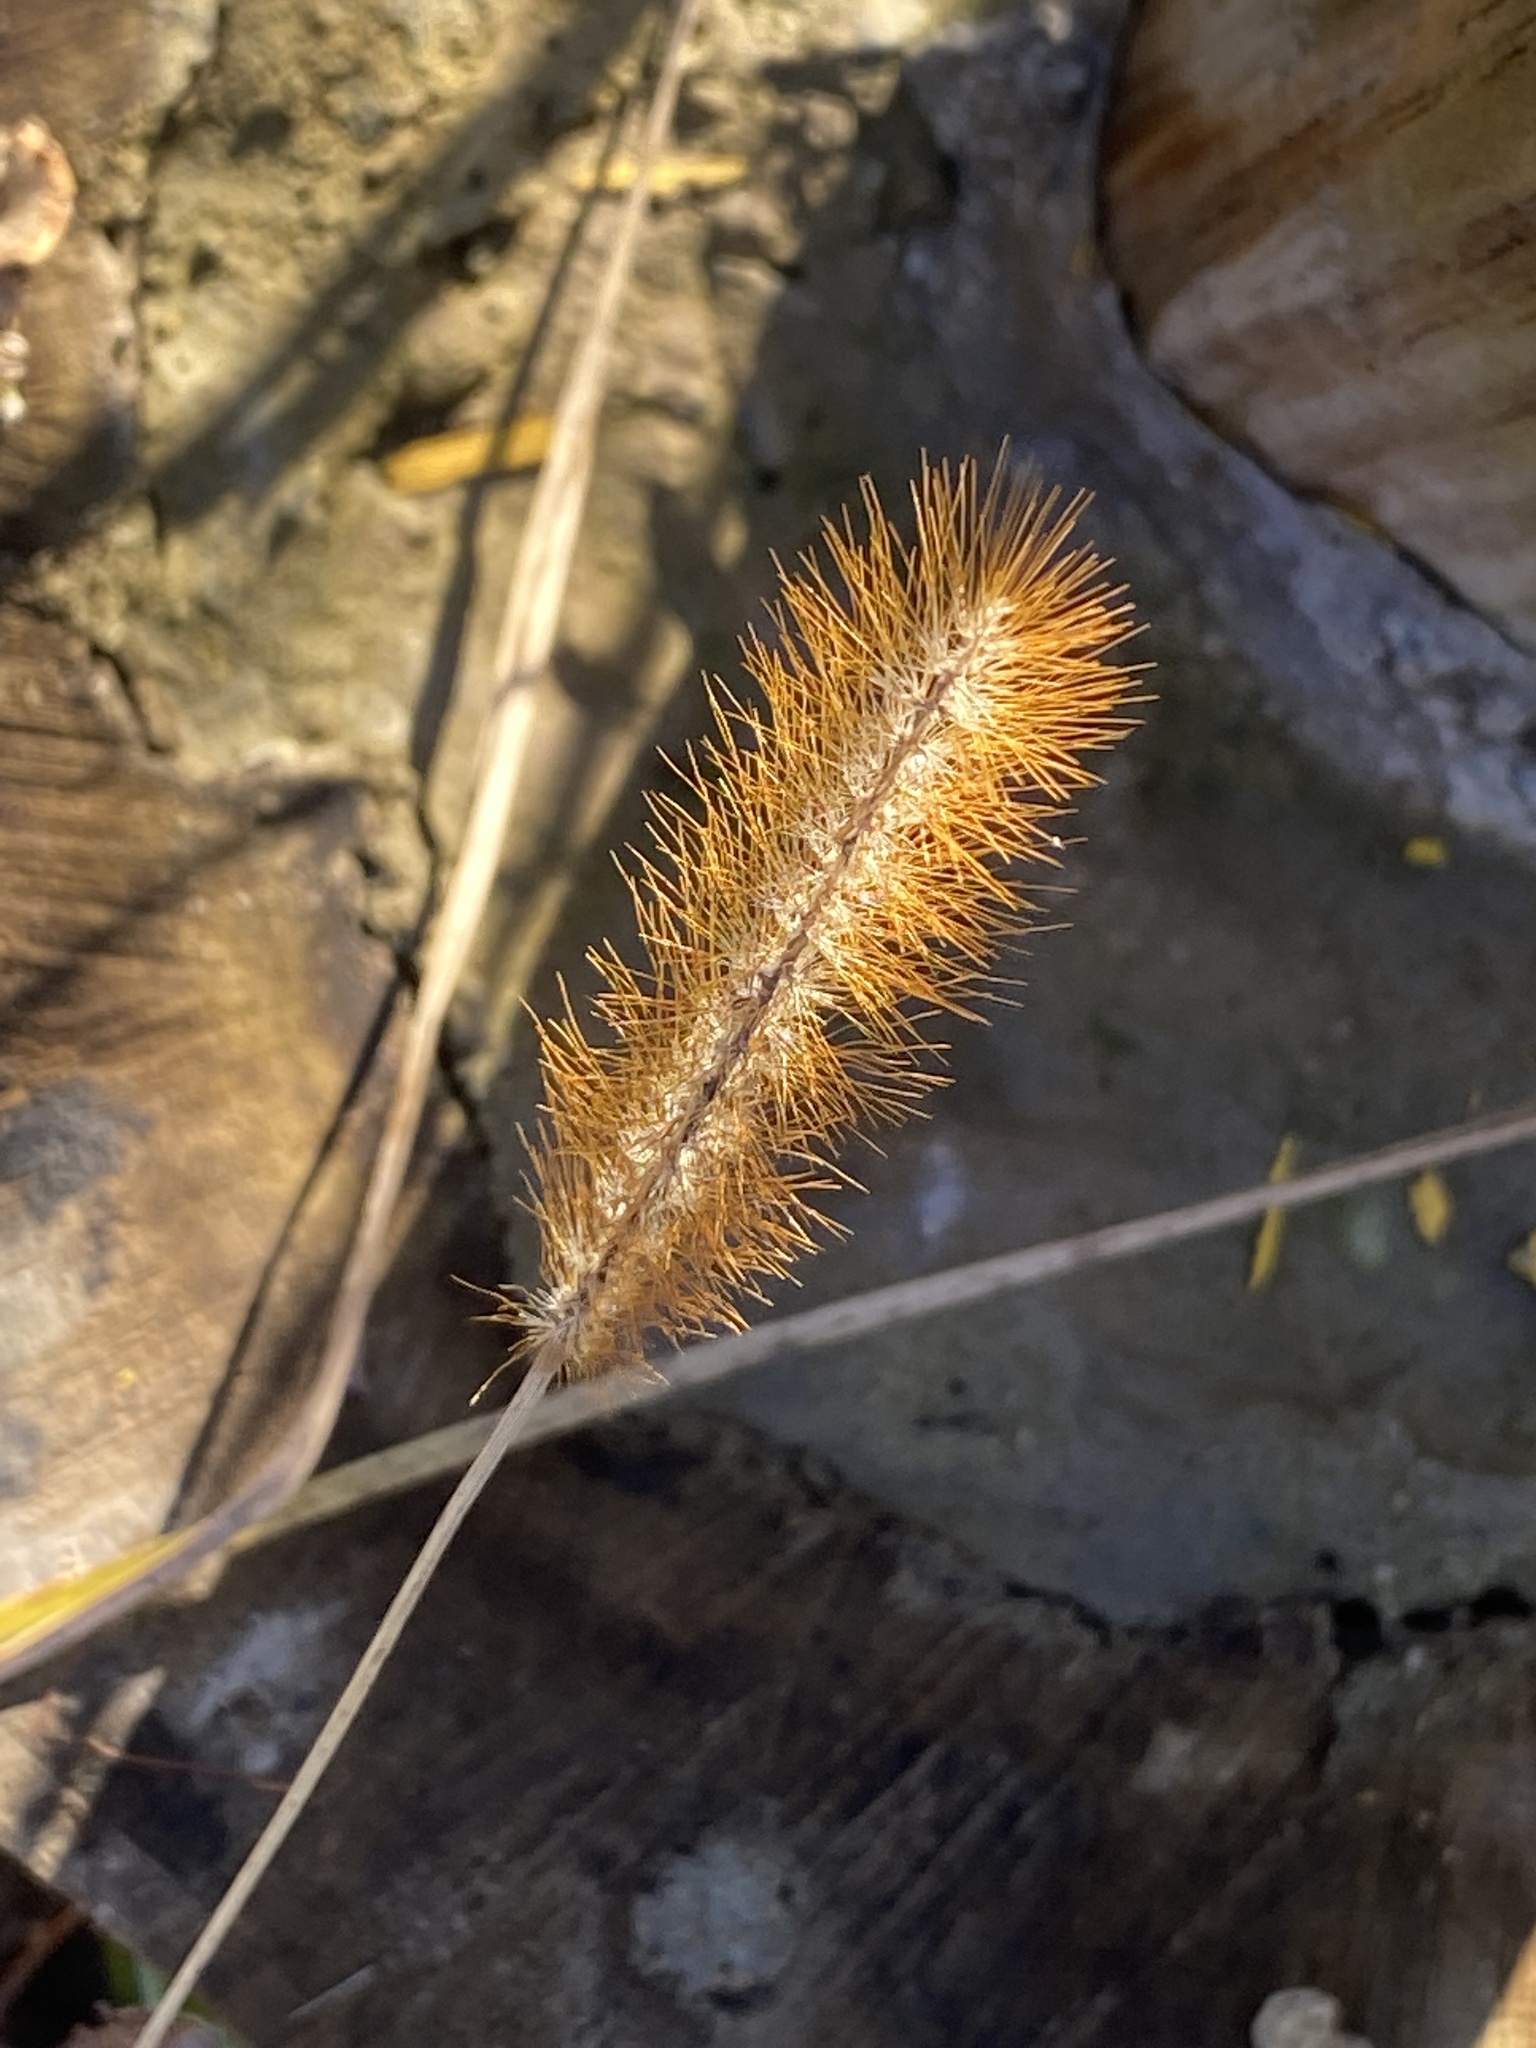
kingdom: Plantae
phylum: Tracheophyta
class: Liliopsida
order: Poales
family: Poaceae
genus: Setaria
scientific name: Setaria pumila
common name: Yellow bristle-grass
